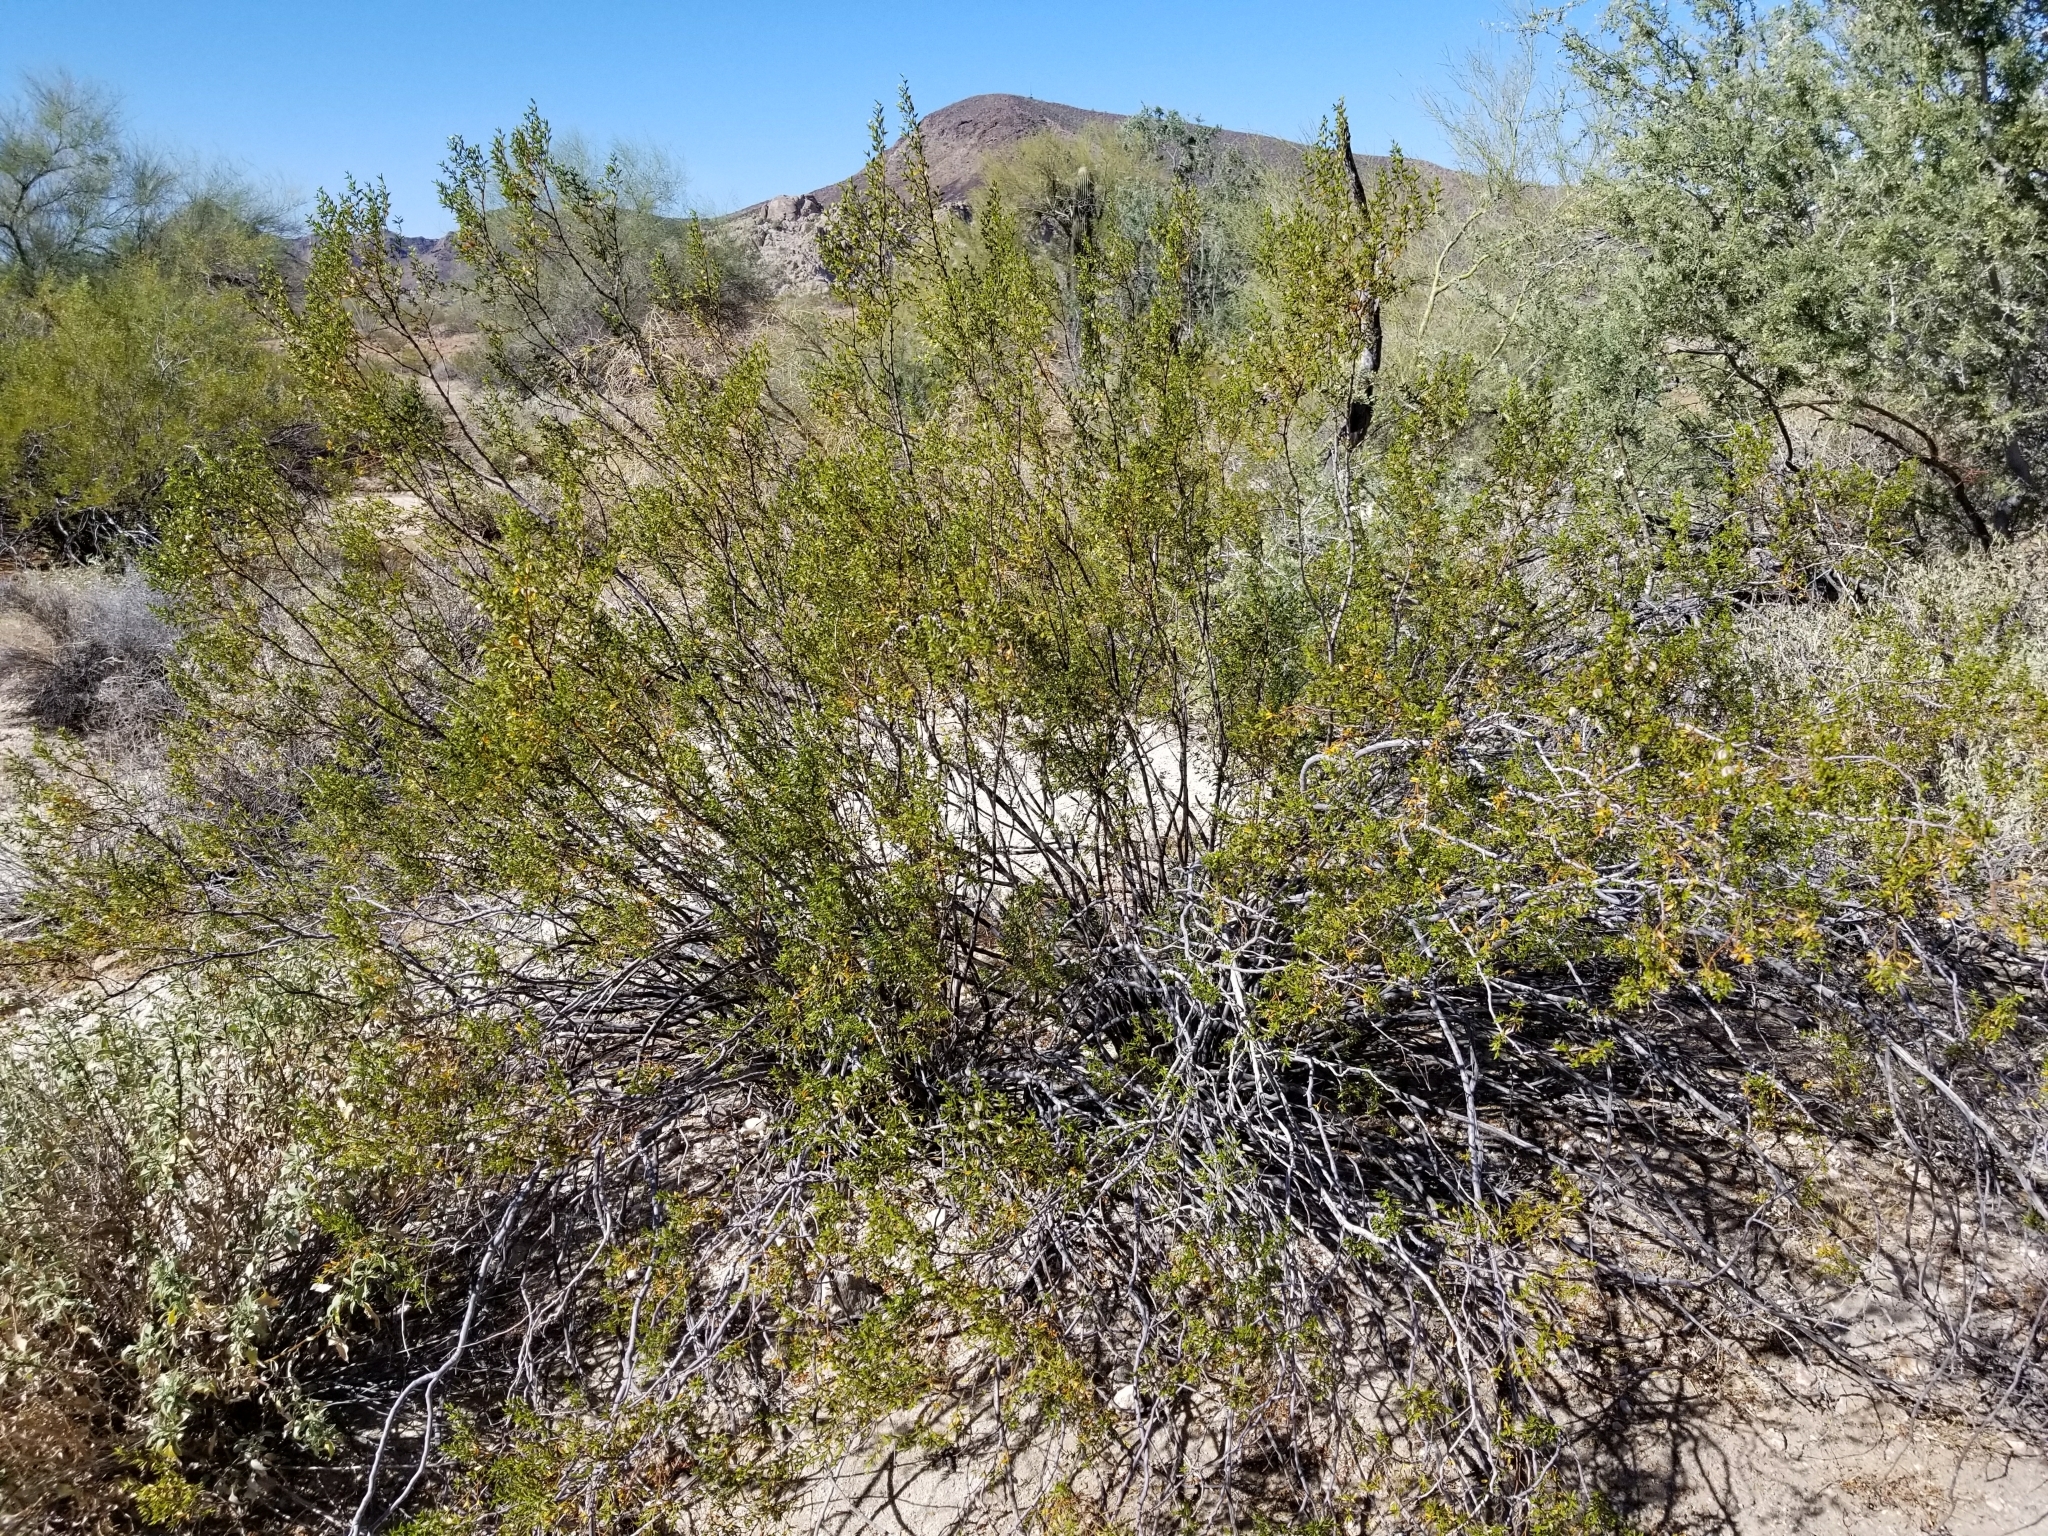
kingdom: Plantae
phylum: Tracheophyta
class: Magnoliopsida
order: Zygophyllales
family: Zygophyllaceae
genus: Larrea
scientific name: Larrea tridentata
